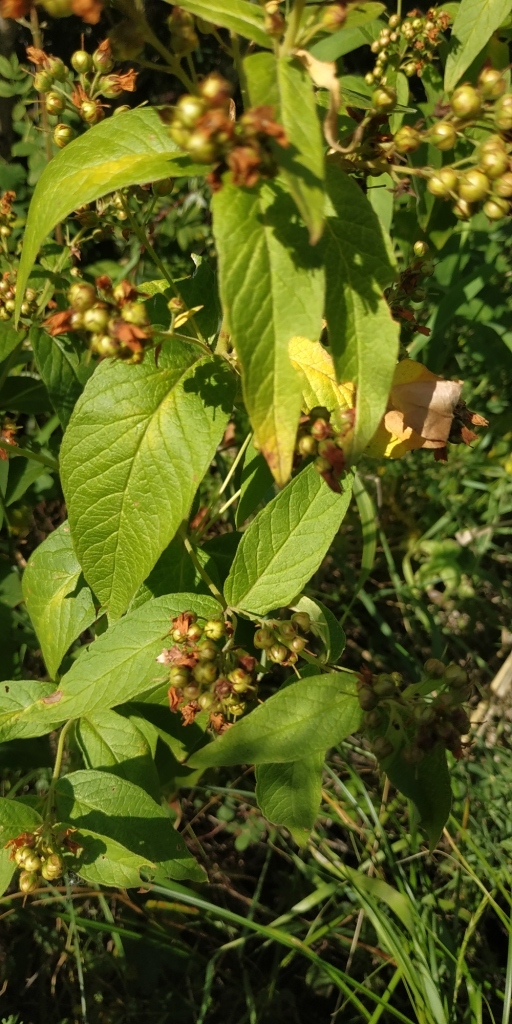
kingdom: Plantae
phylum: Tracheophyta
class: Magnoliopsida
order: Ericales
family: Primulaceae
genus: Lysimachia
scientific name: Lysimachia vulgaris
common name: Yellow loosestrife
